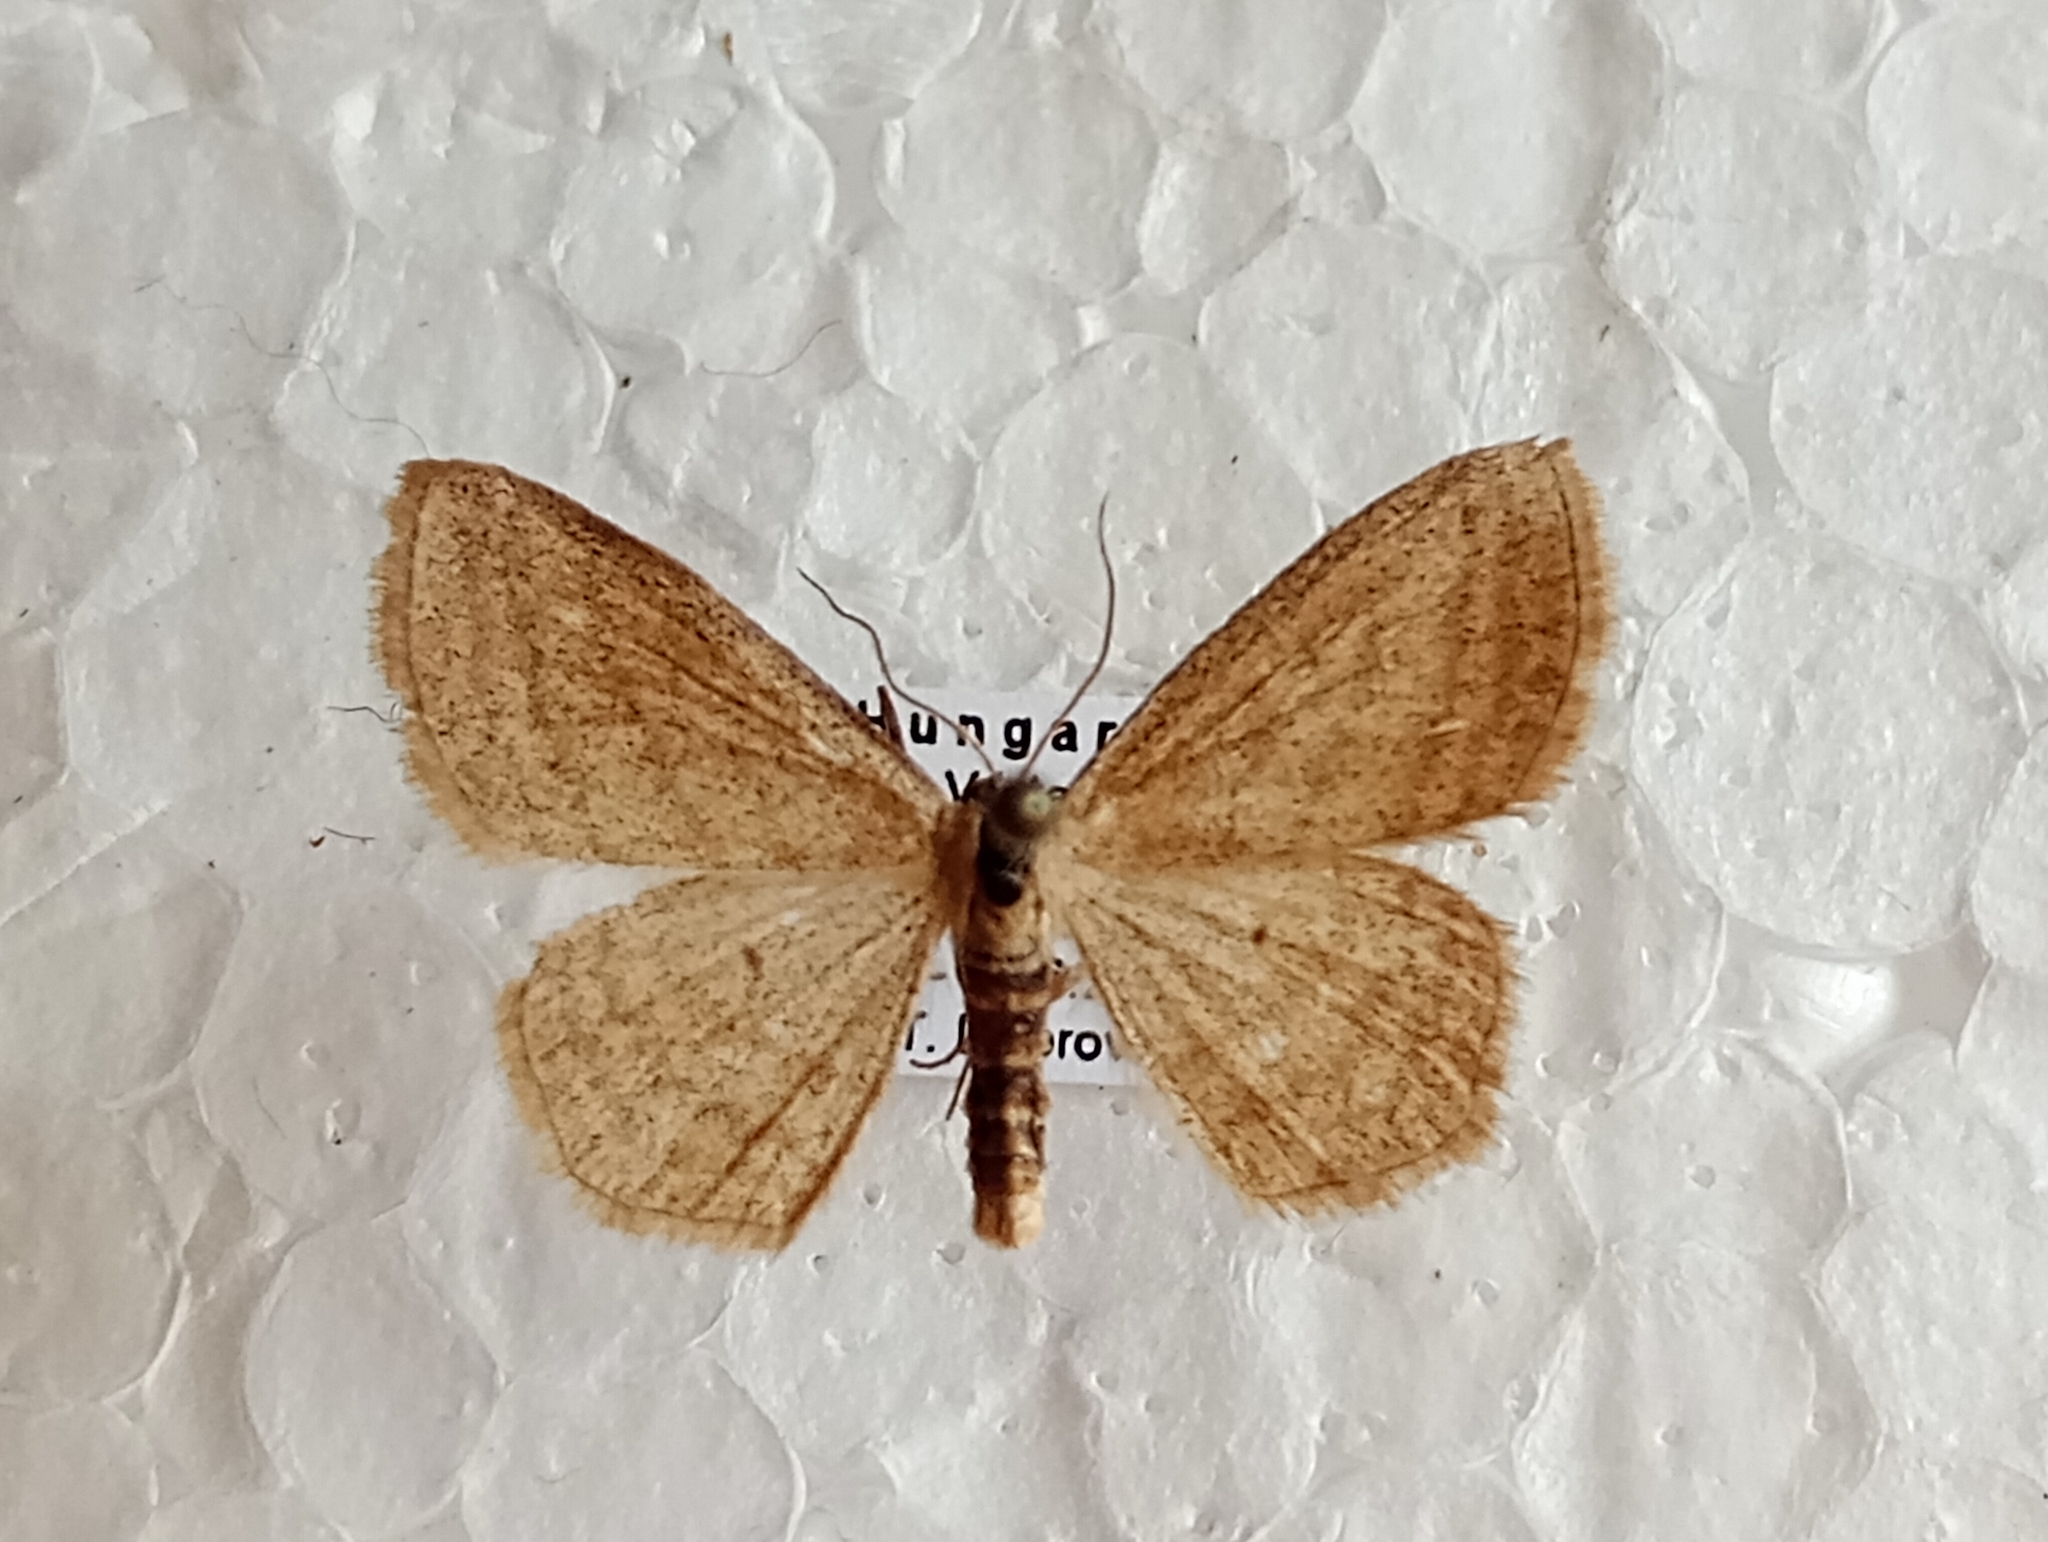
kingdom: Animalia
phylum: Arthropoda
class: Insecta
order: Lepidoptera
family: Geometridae
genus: Scopula
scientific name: Scopula virgulata
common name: Streaked wave
